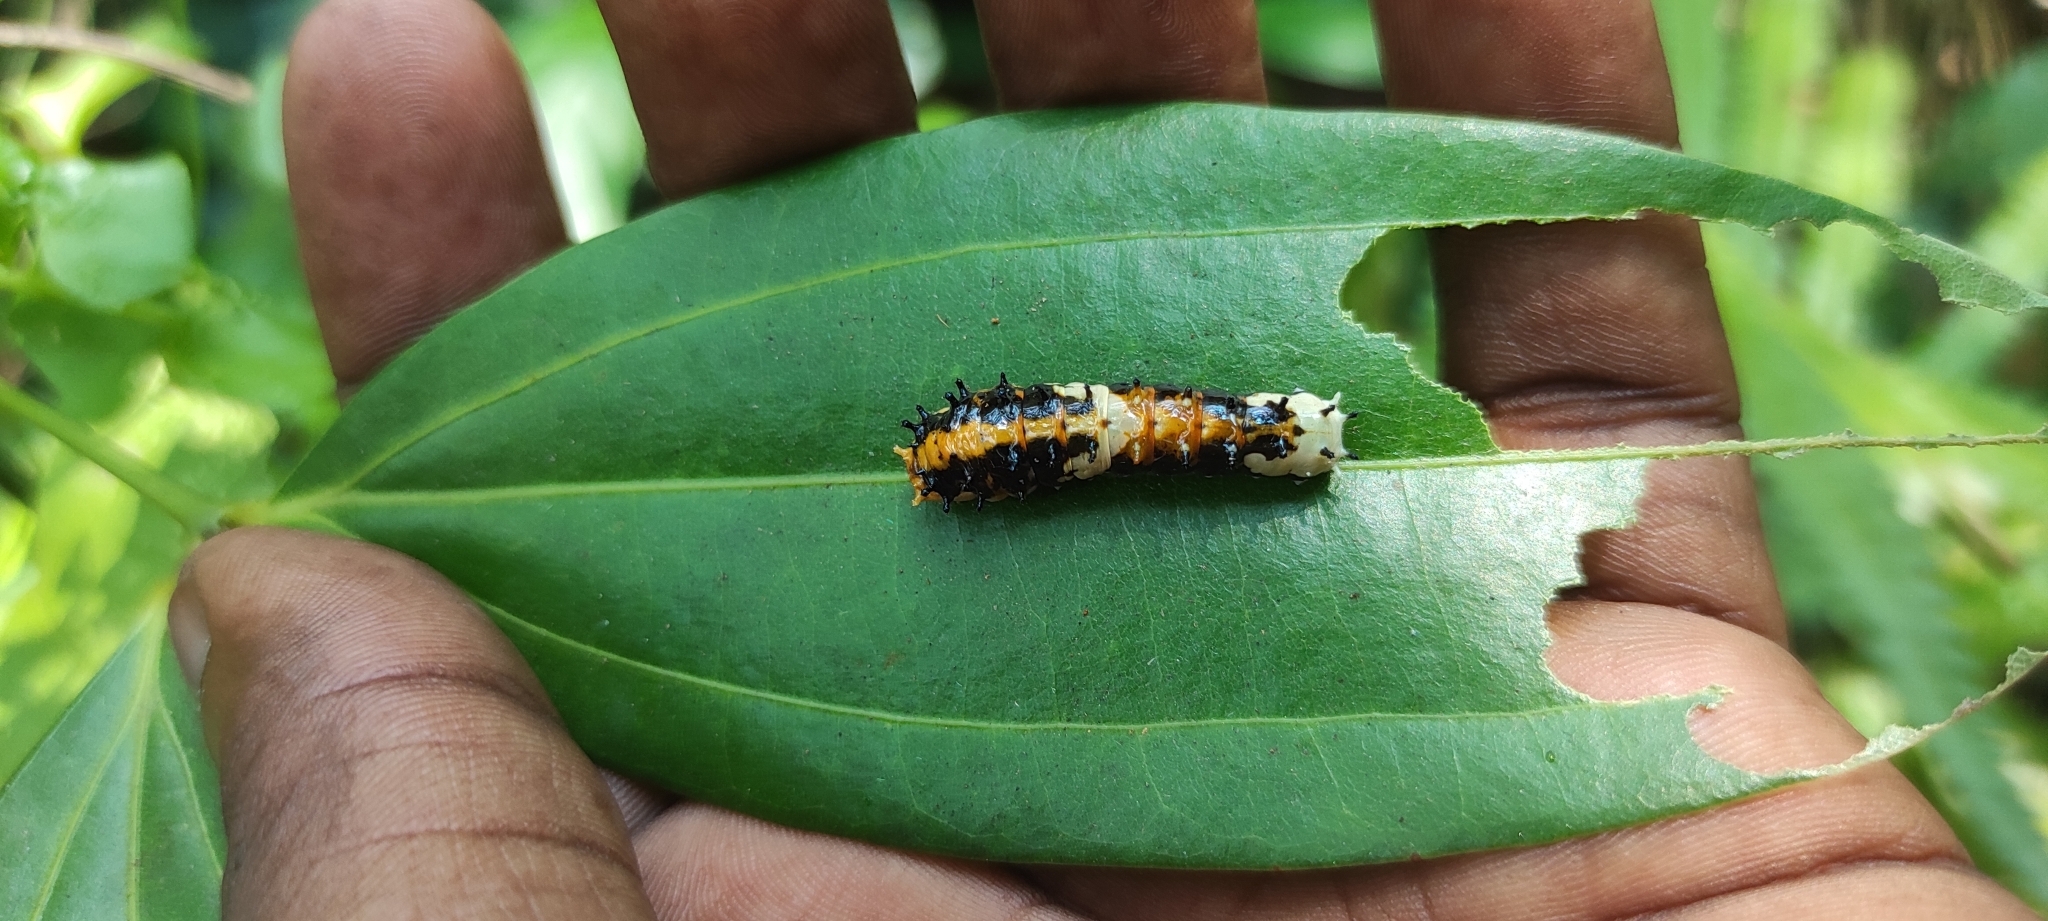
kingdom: Animalia
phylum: Arthropoda
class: Insecta
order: Lepidoptera
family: Papilionidae
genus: Chilasa
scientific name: Chilasa clytia
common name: Common mime
